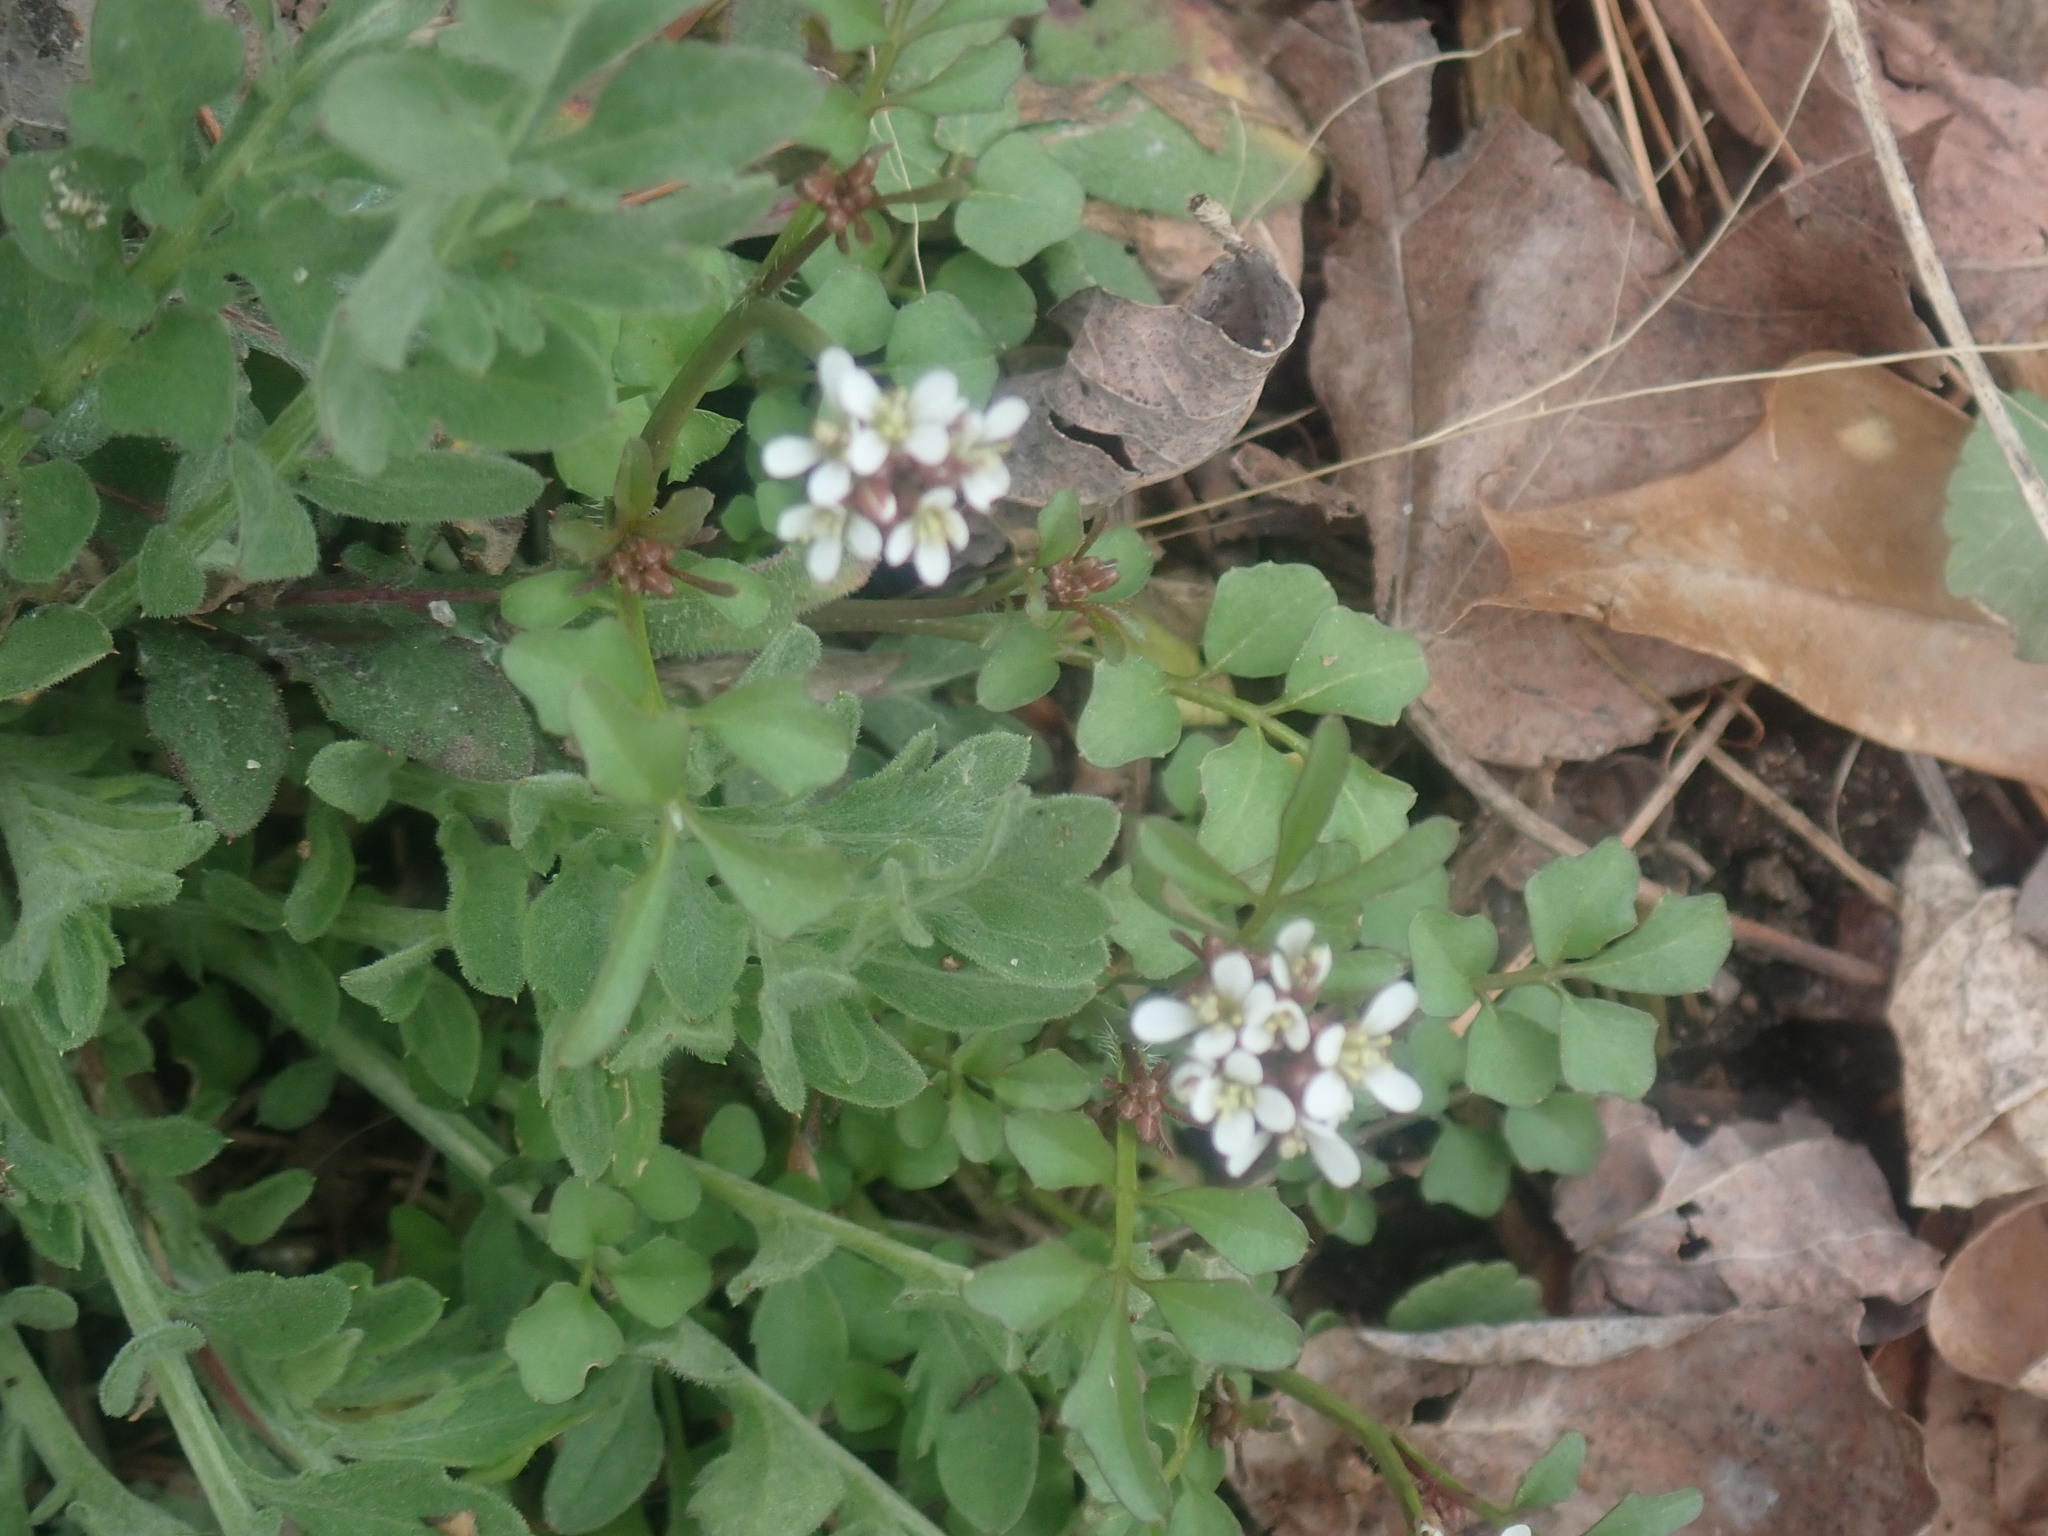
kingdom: Plantae
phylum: Tracheophyta
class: Magnoliopsida
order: Brassicales
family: Brassicaceae
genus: Cardamine
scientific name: Cardamine hirsuta
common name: Hairy bittercress
